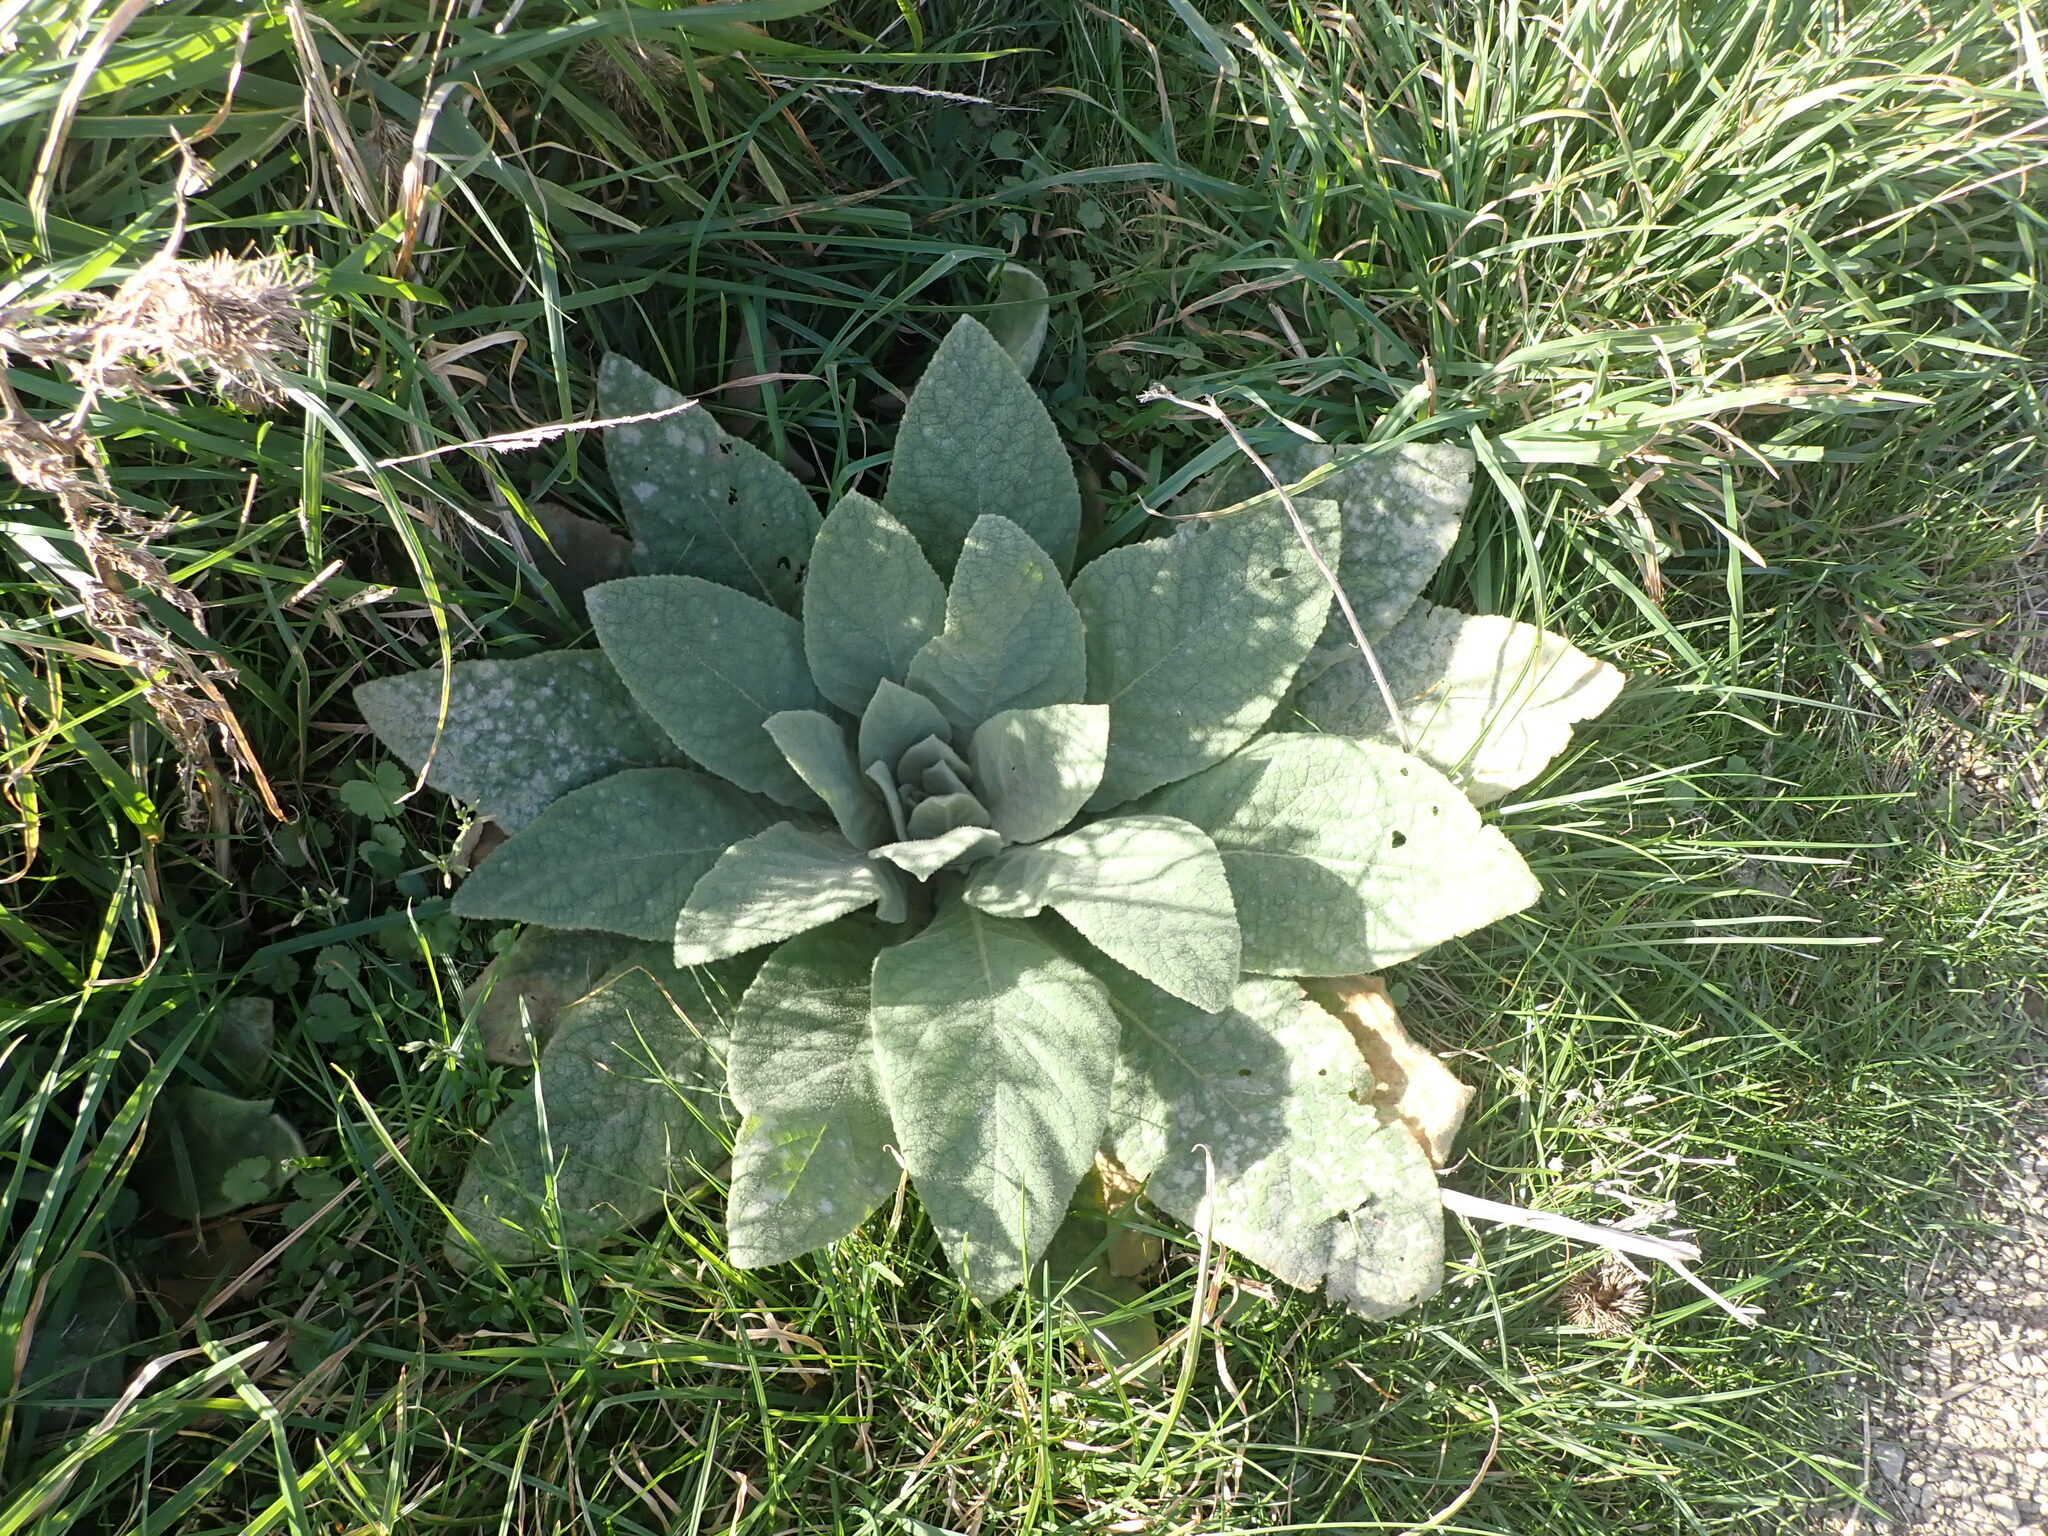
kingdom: Plantae
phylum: Tracheophyta
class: Magnoliopsida
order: Lamiales
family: Scrophulariaceae
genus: Verbascum
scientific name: Verbascum thapsus
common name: Common mullein
